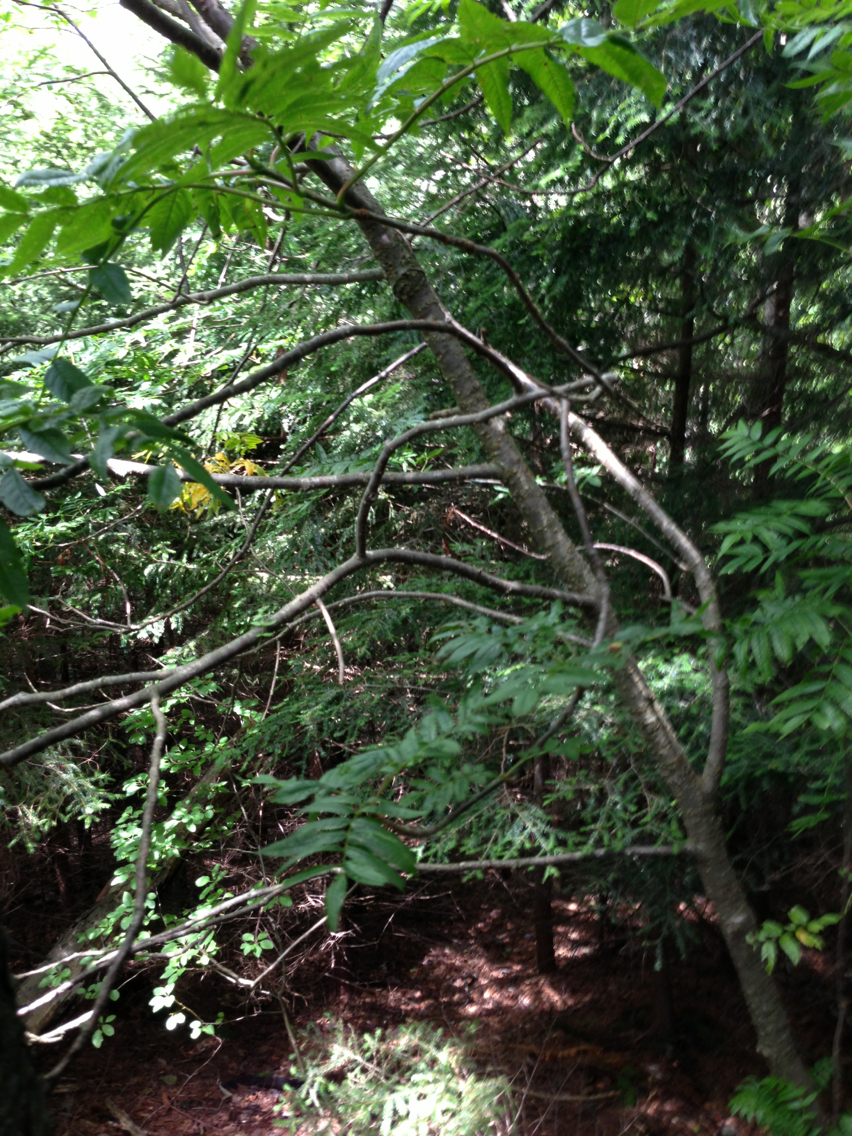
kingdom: Plantae
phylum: Tracheophyta
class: Magnoliopsida
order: Rosales
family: Rosaceae
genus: Sorbus
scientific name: Sorbus americana
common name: American mountain-ash
